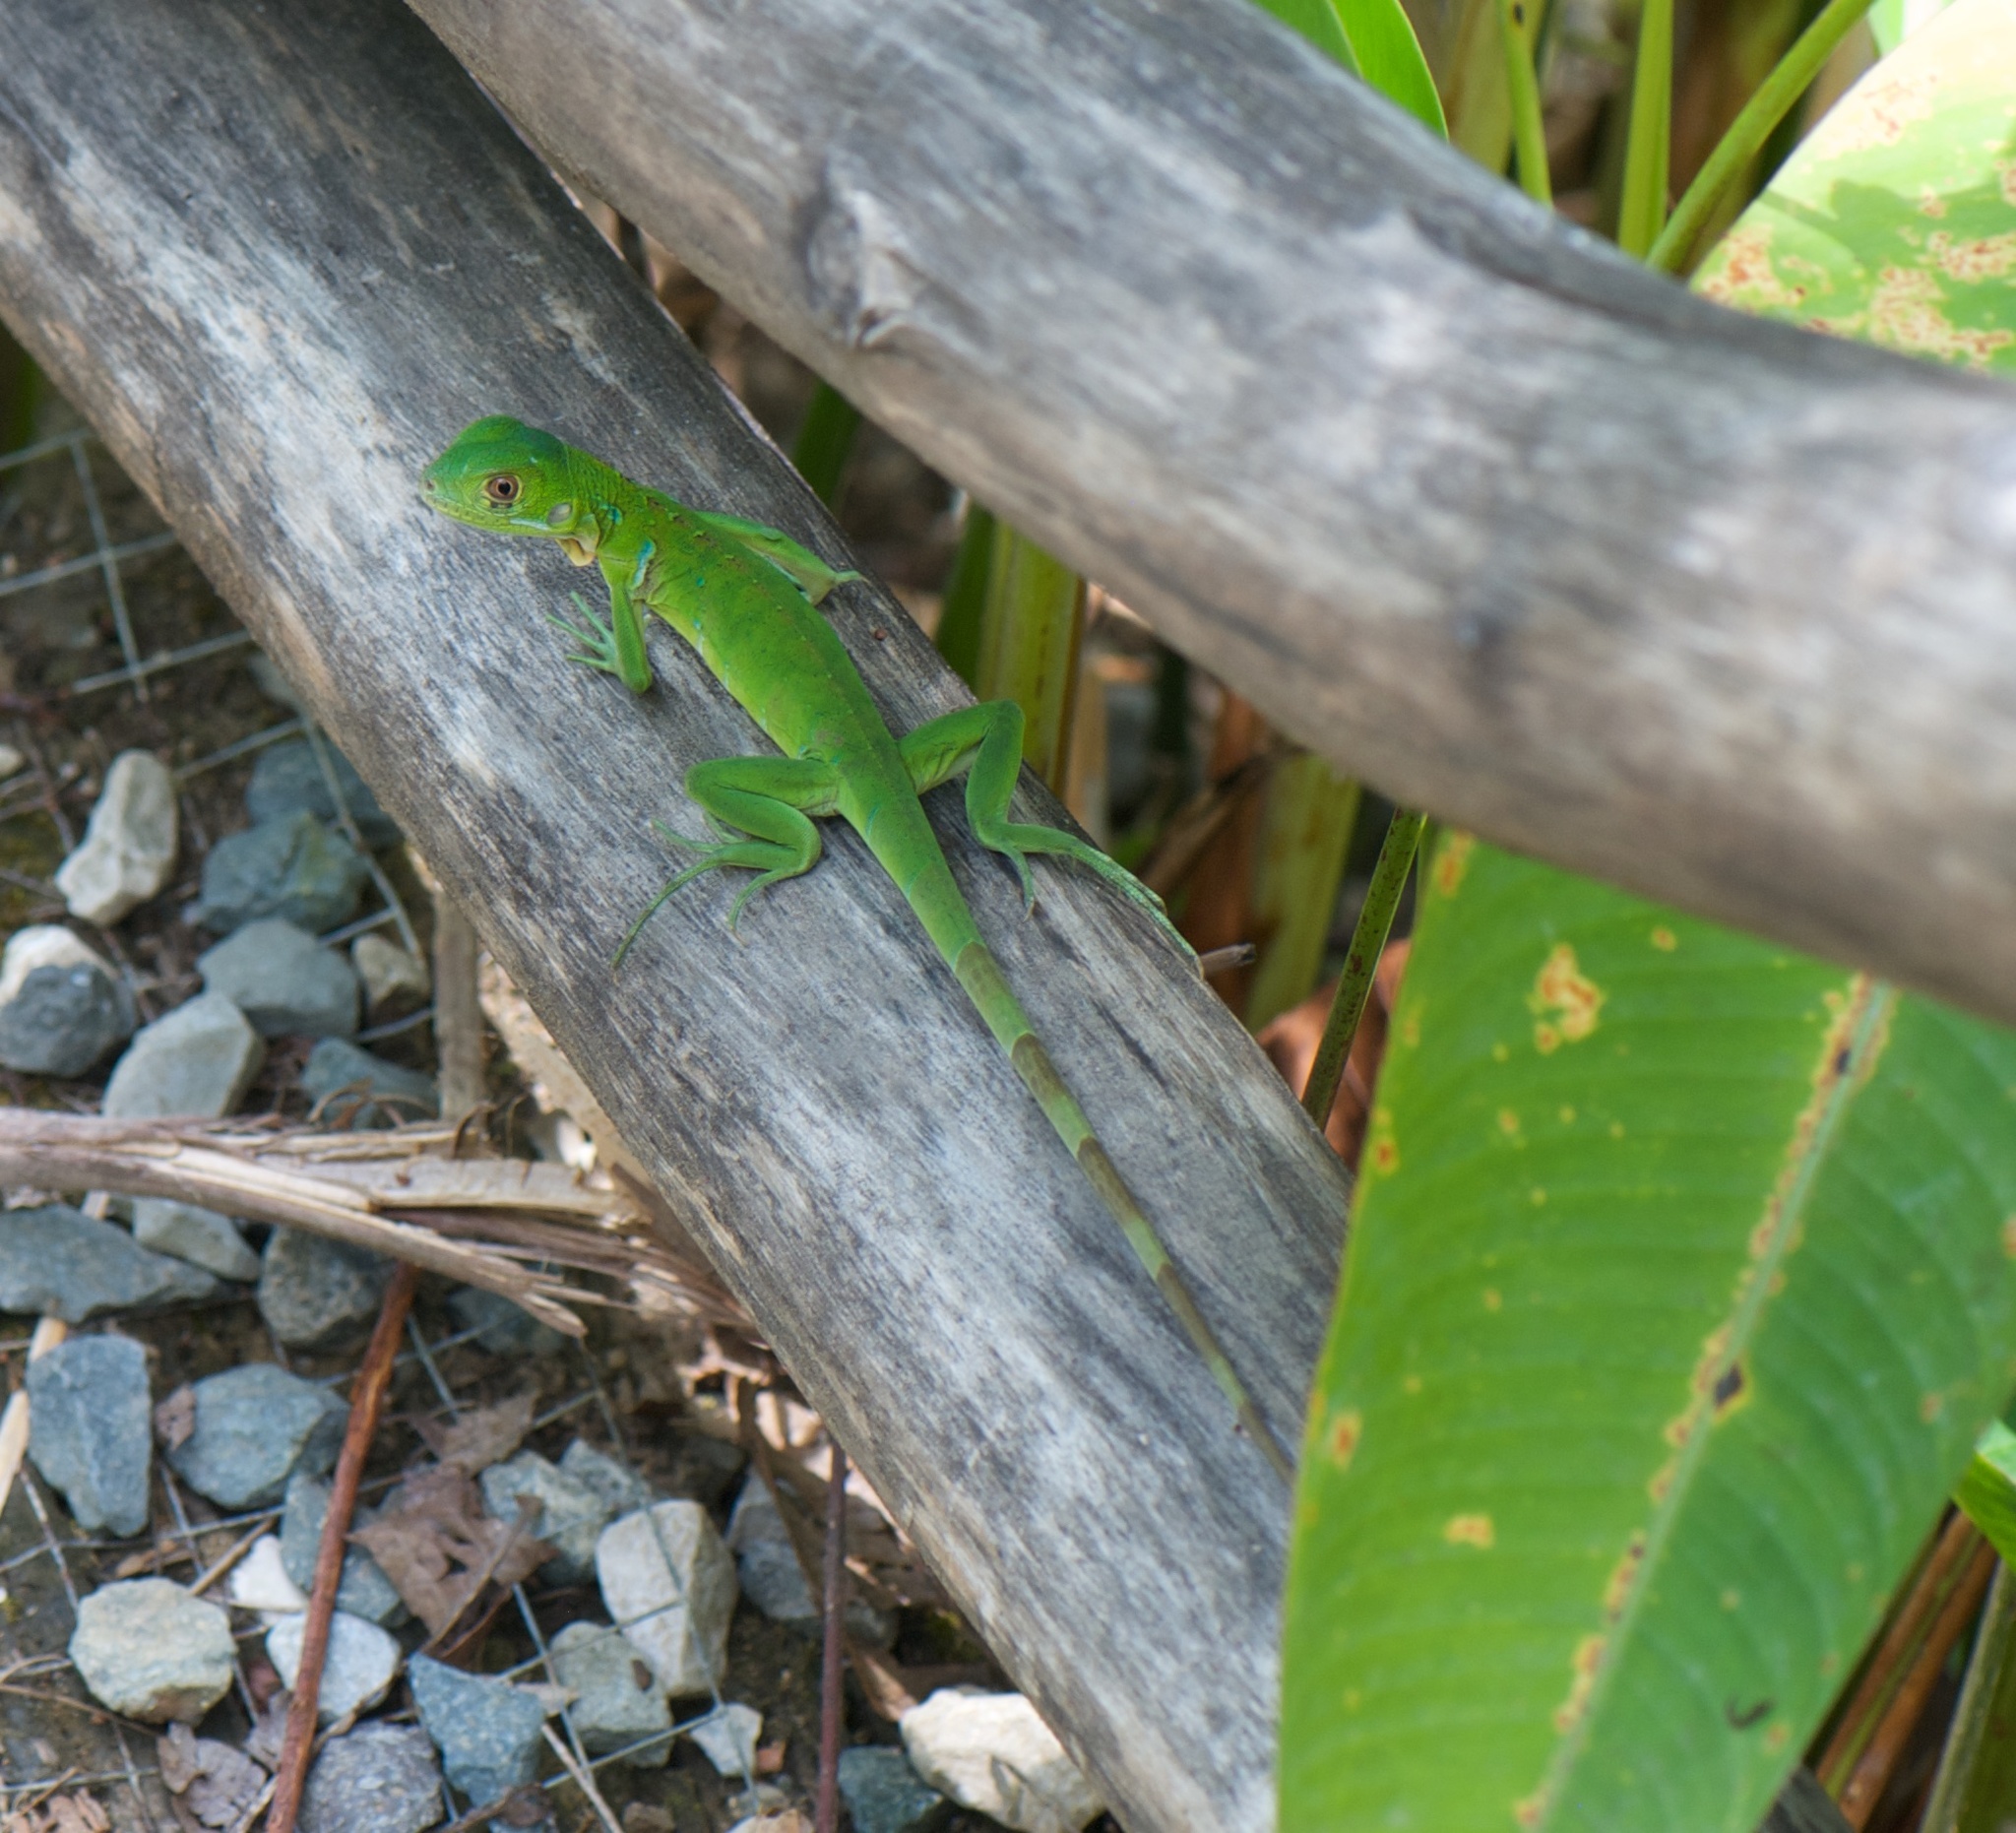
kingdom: Animalia
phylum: Chordata
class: Squamata
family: Iguanidae
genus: Iguana
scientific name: Iguana iguana
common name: Green iguana
